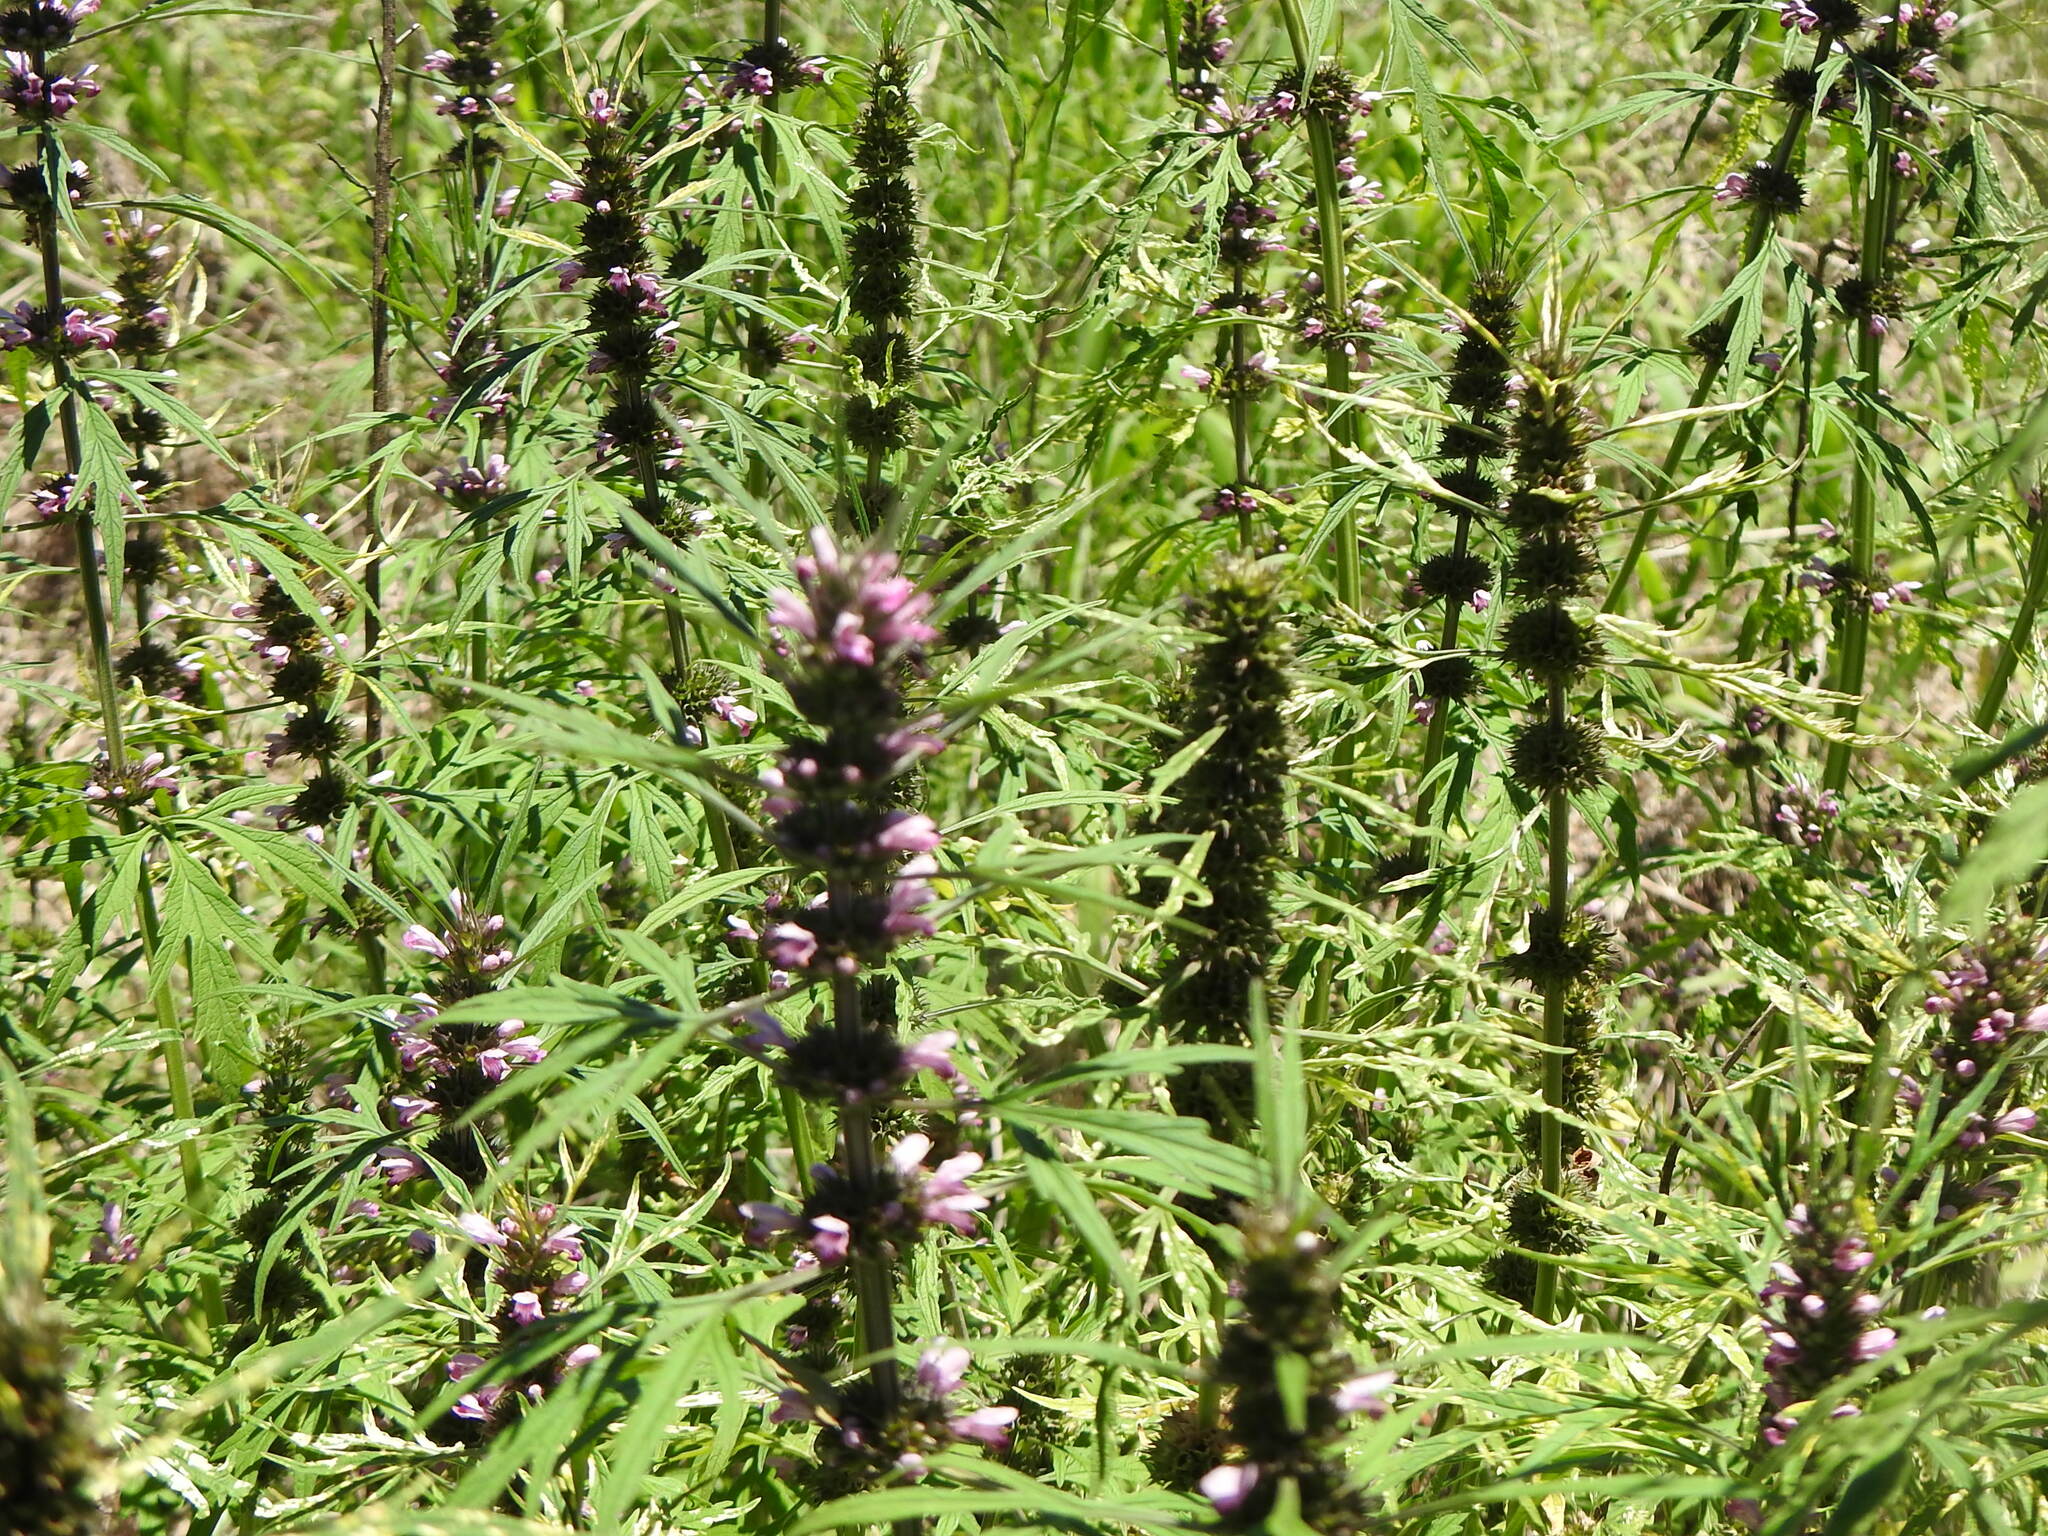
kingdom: Plantae
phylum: Tracheophyta
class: Magnoliopsida
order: Lamiales
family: Lamiaceae
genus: Leonurus
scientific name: Leonurus japonicus
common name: Honeyweed
